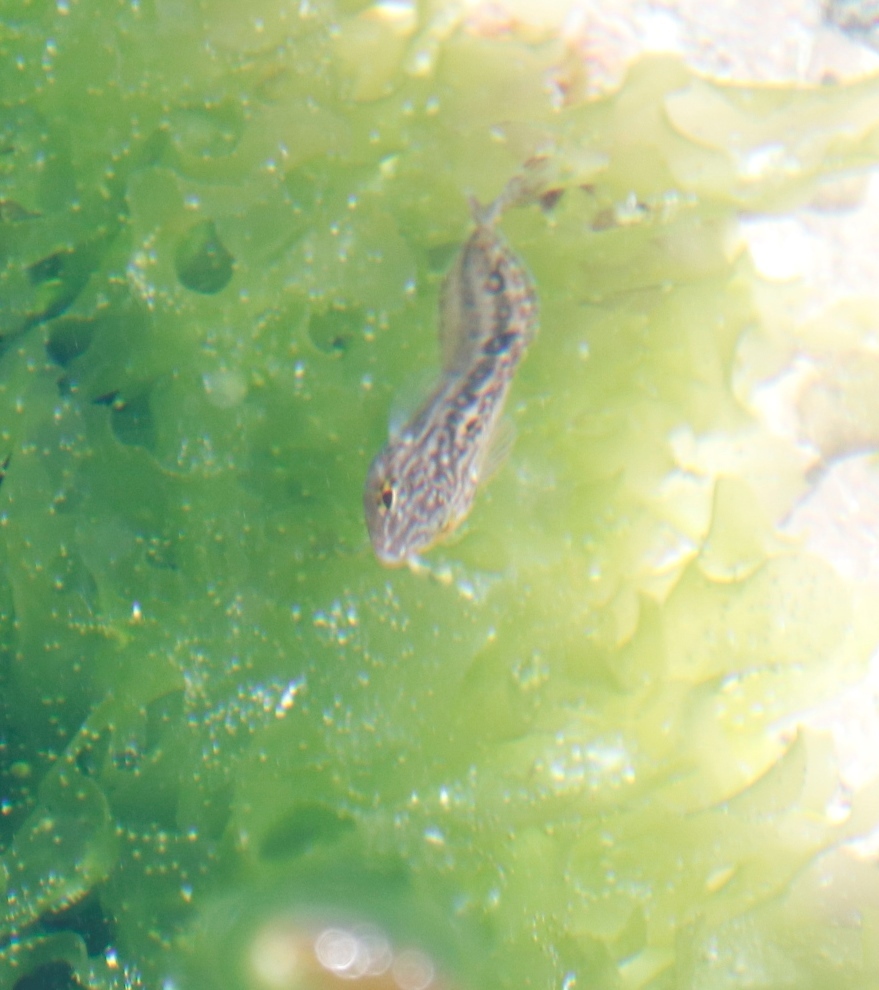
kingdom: Animalia
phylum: Chordata
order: Perciformes
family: Clinidae
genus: Clinus
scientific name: Clinus superciliosus
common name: Super klipfish
